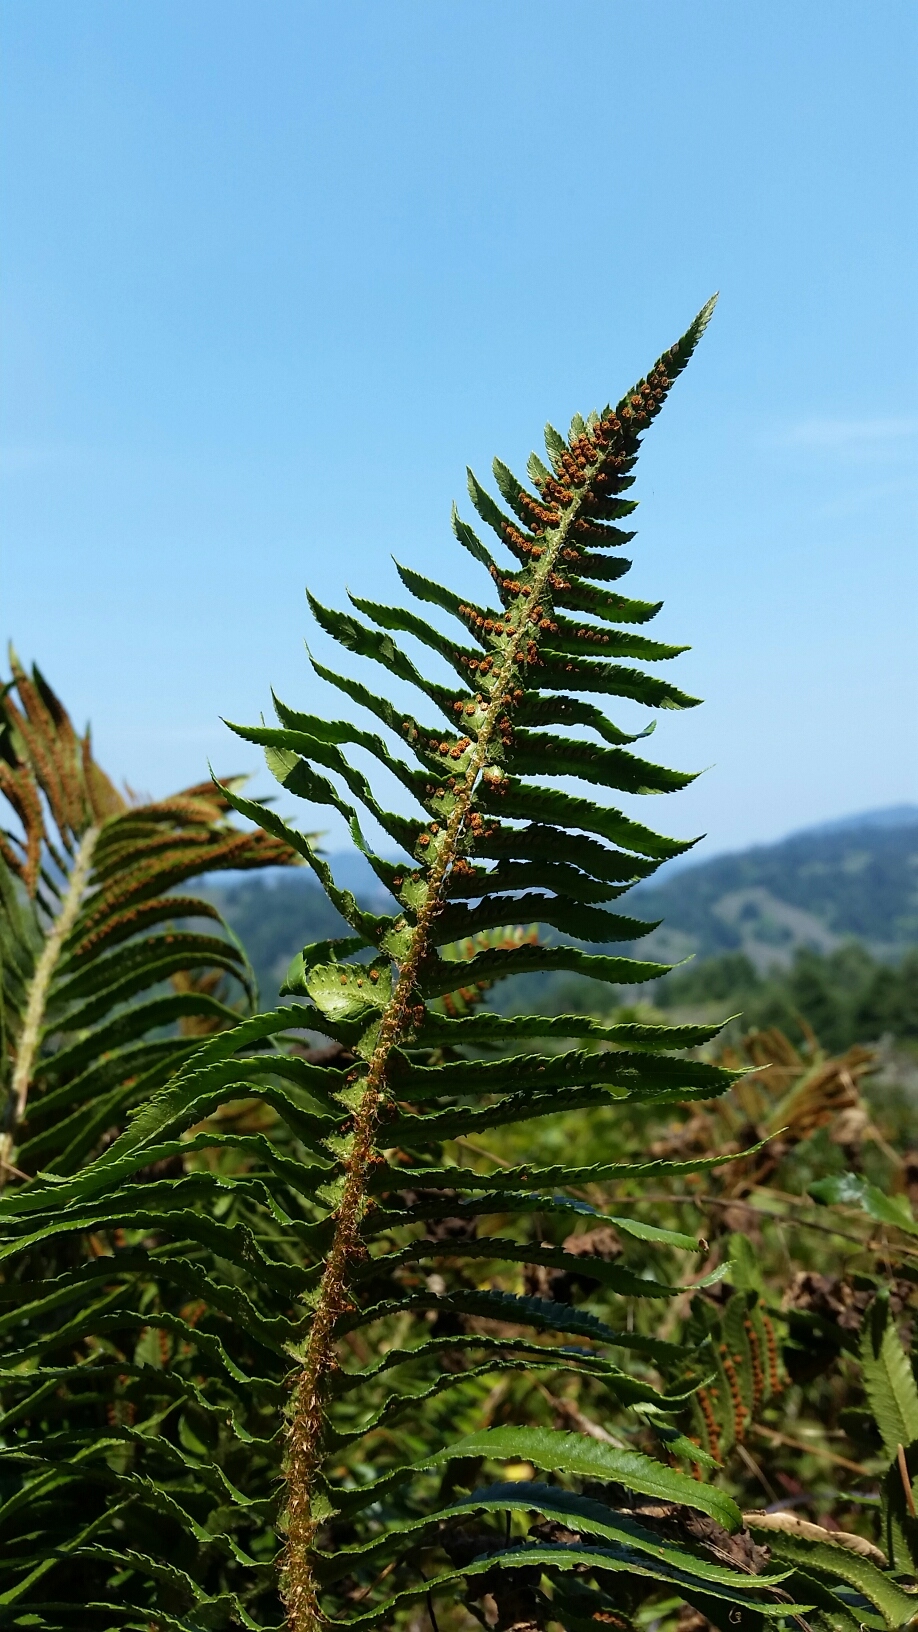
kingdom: Plantae
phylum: Tracheophyta
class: Polypodiopsida
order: Polypodiales
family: Dryopteridaceae
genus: Polystichum
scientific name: Polystichum munitum
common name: Western sword-fern
